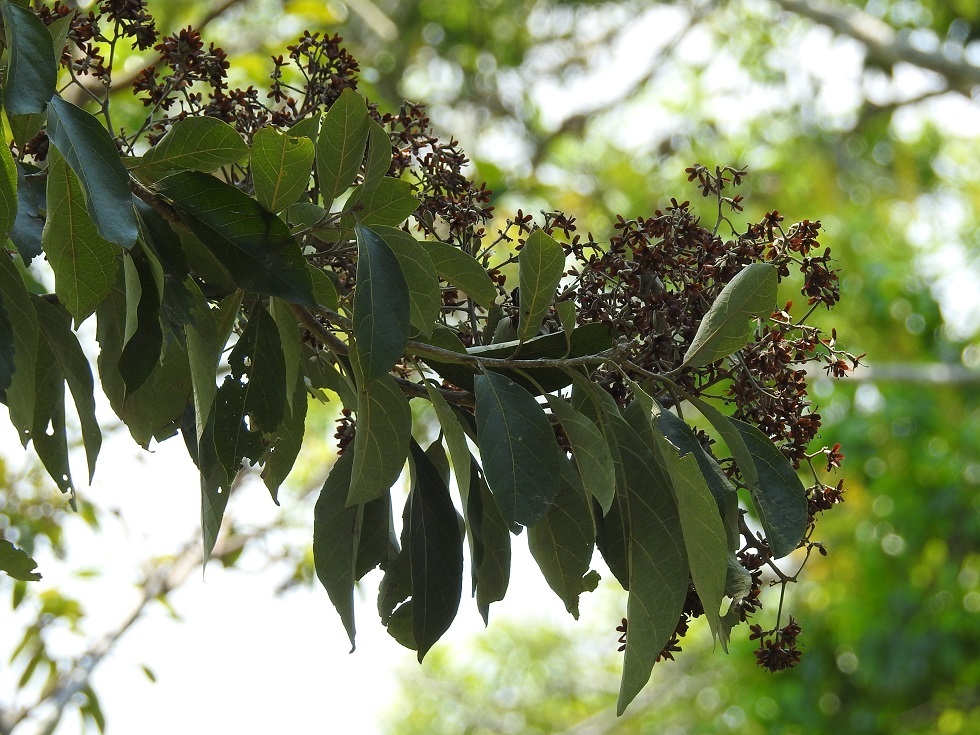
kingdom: Plantae
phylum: Tracheophyta
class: Magnoliopsida
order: Boraginales
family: Cordiaceae
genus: Cordia
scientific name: Cordia alliodora
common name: Spanish elm
